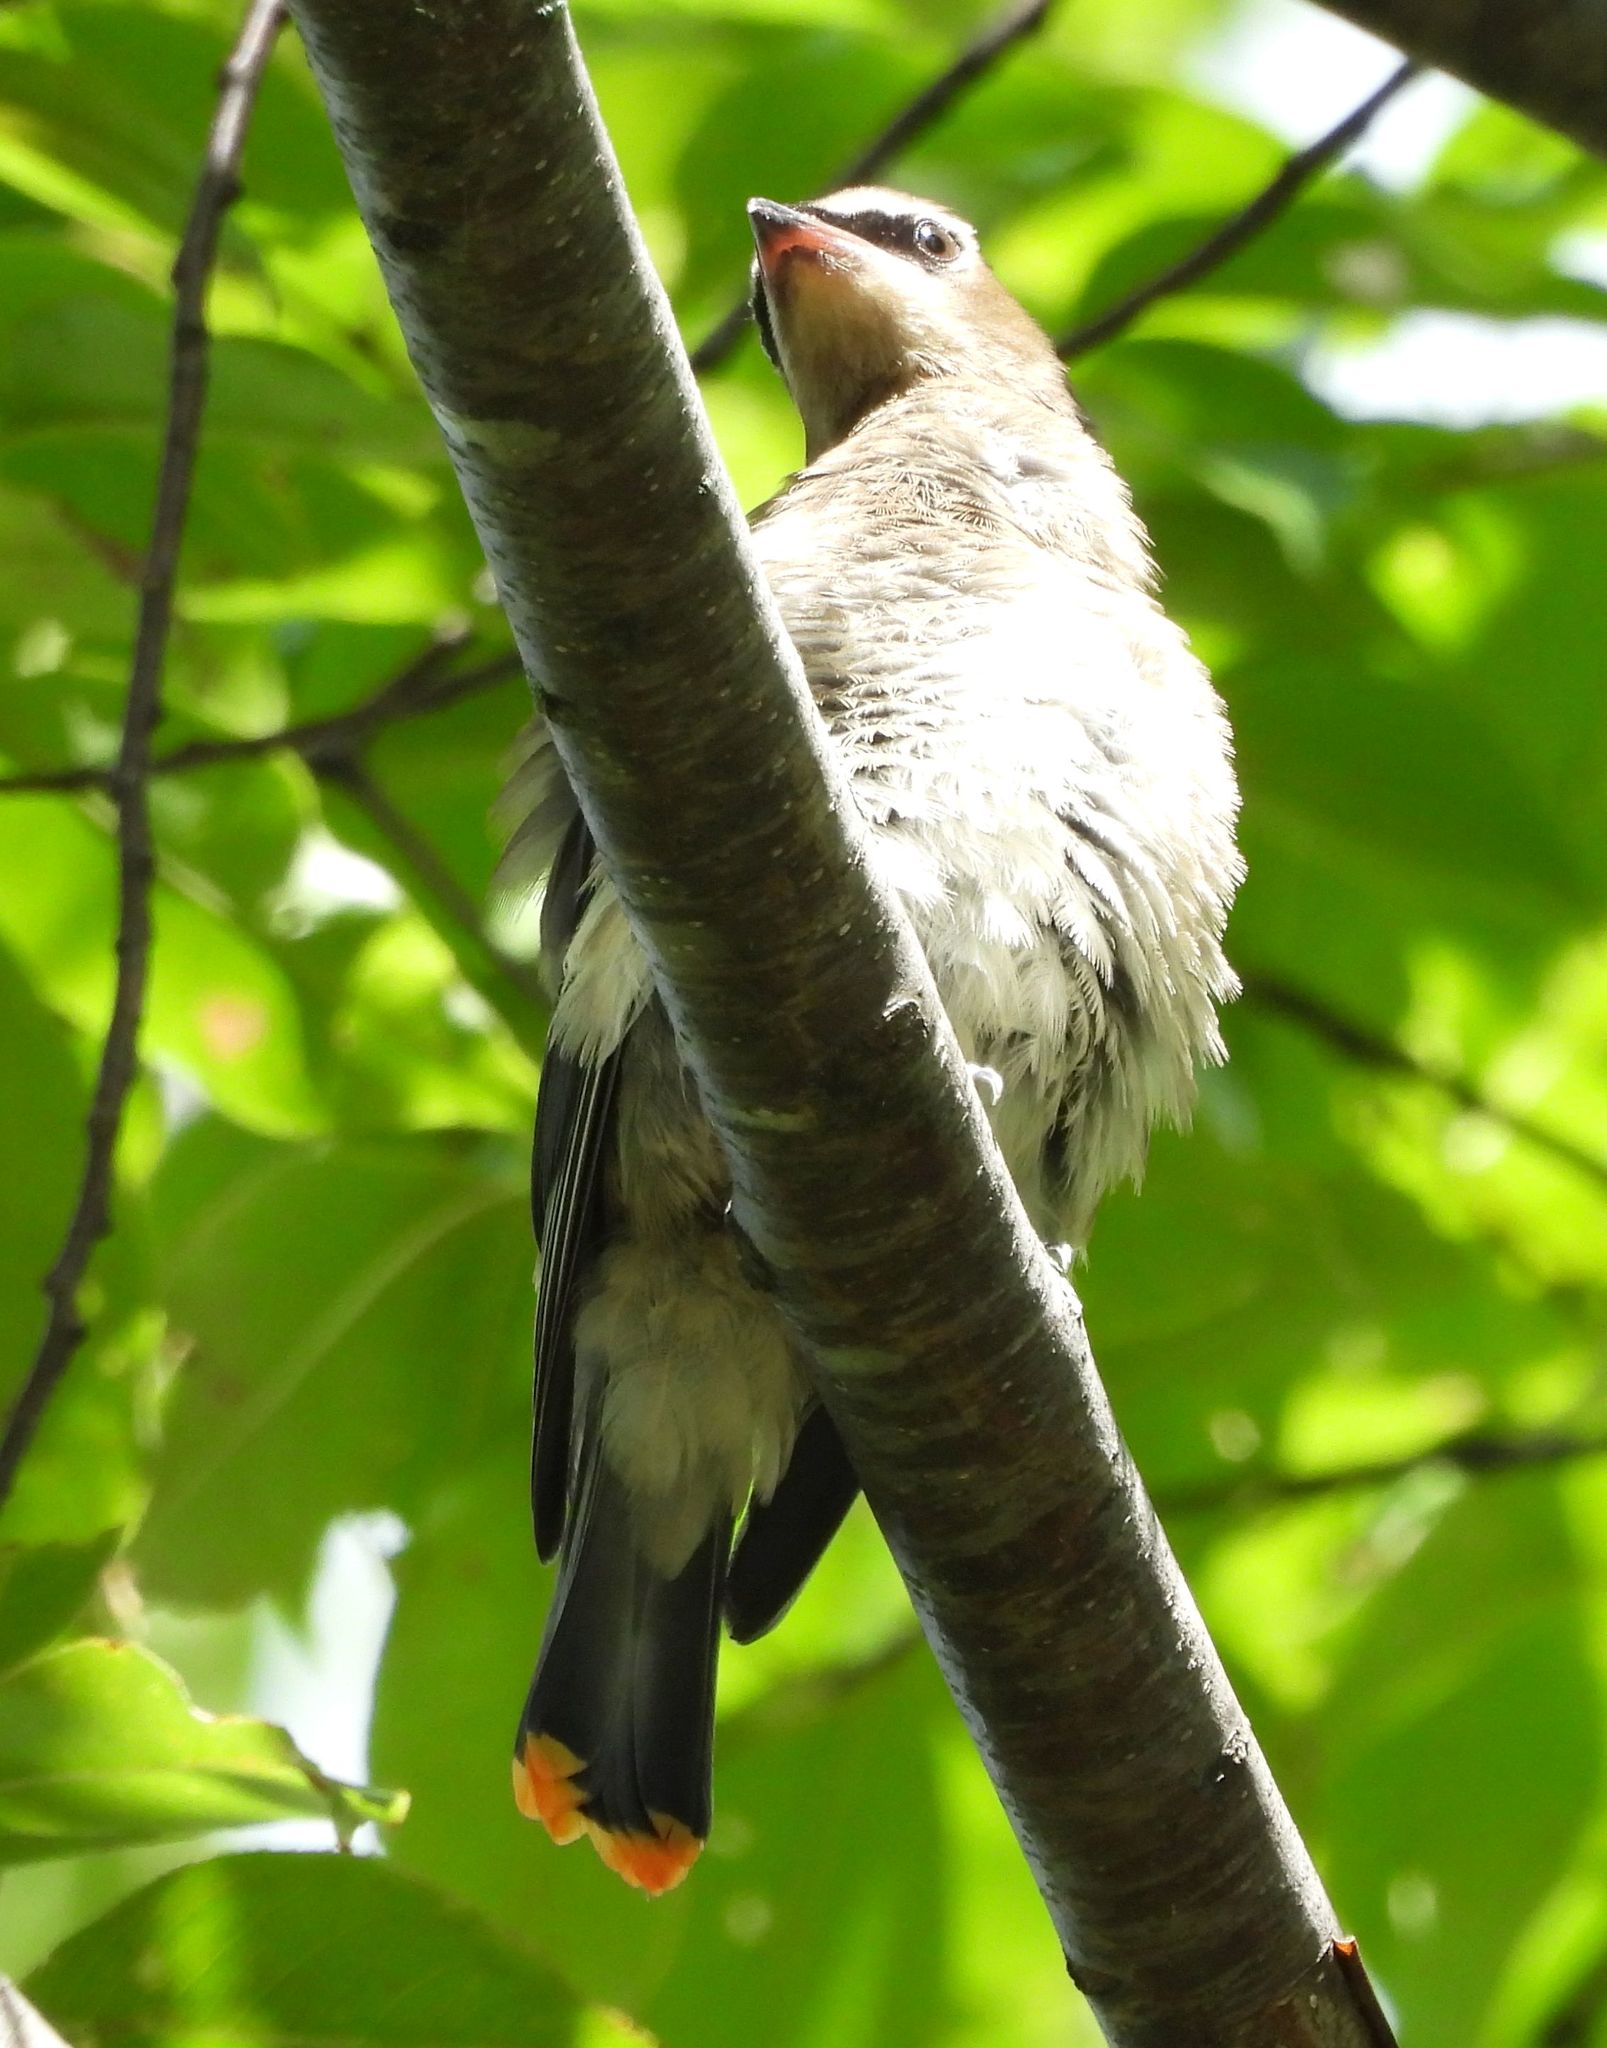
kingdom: Animalia
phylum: Chordata
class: Aves
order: Passeriformes
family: Bombycillidae
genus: Bombycilla
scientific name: Bombycilla cedrorum
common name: Cedar waxwing
